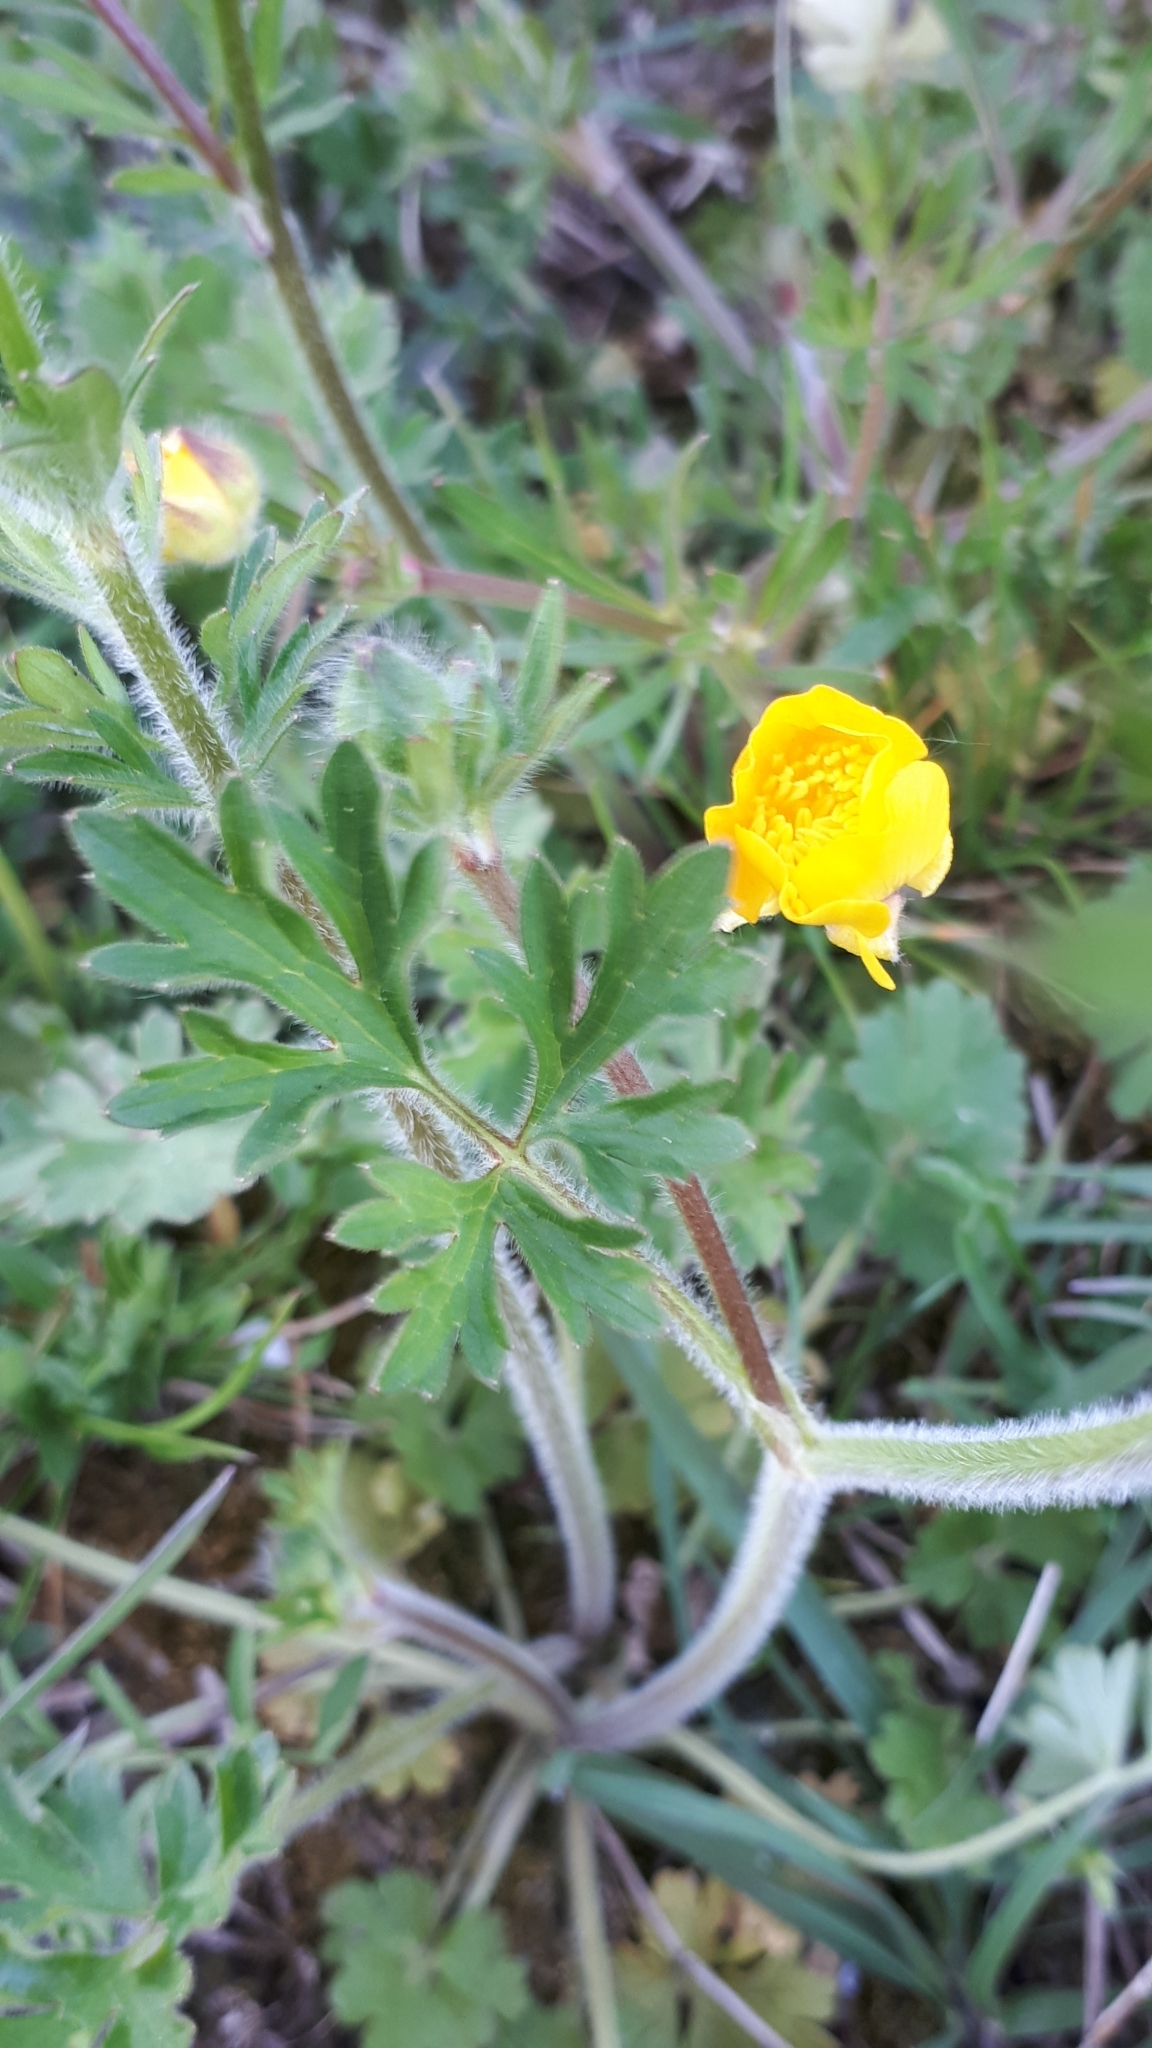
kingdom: Plantae
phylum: Tracheophyta
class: Magnoliopsida
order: Ranunculales
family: Ranunculaceae
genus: Ranunculus
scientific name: Ranunculus bulbosus
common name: Bulbous buttercup
